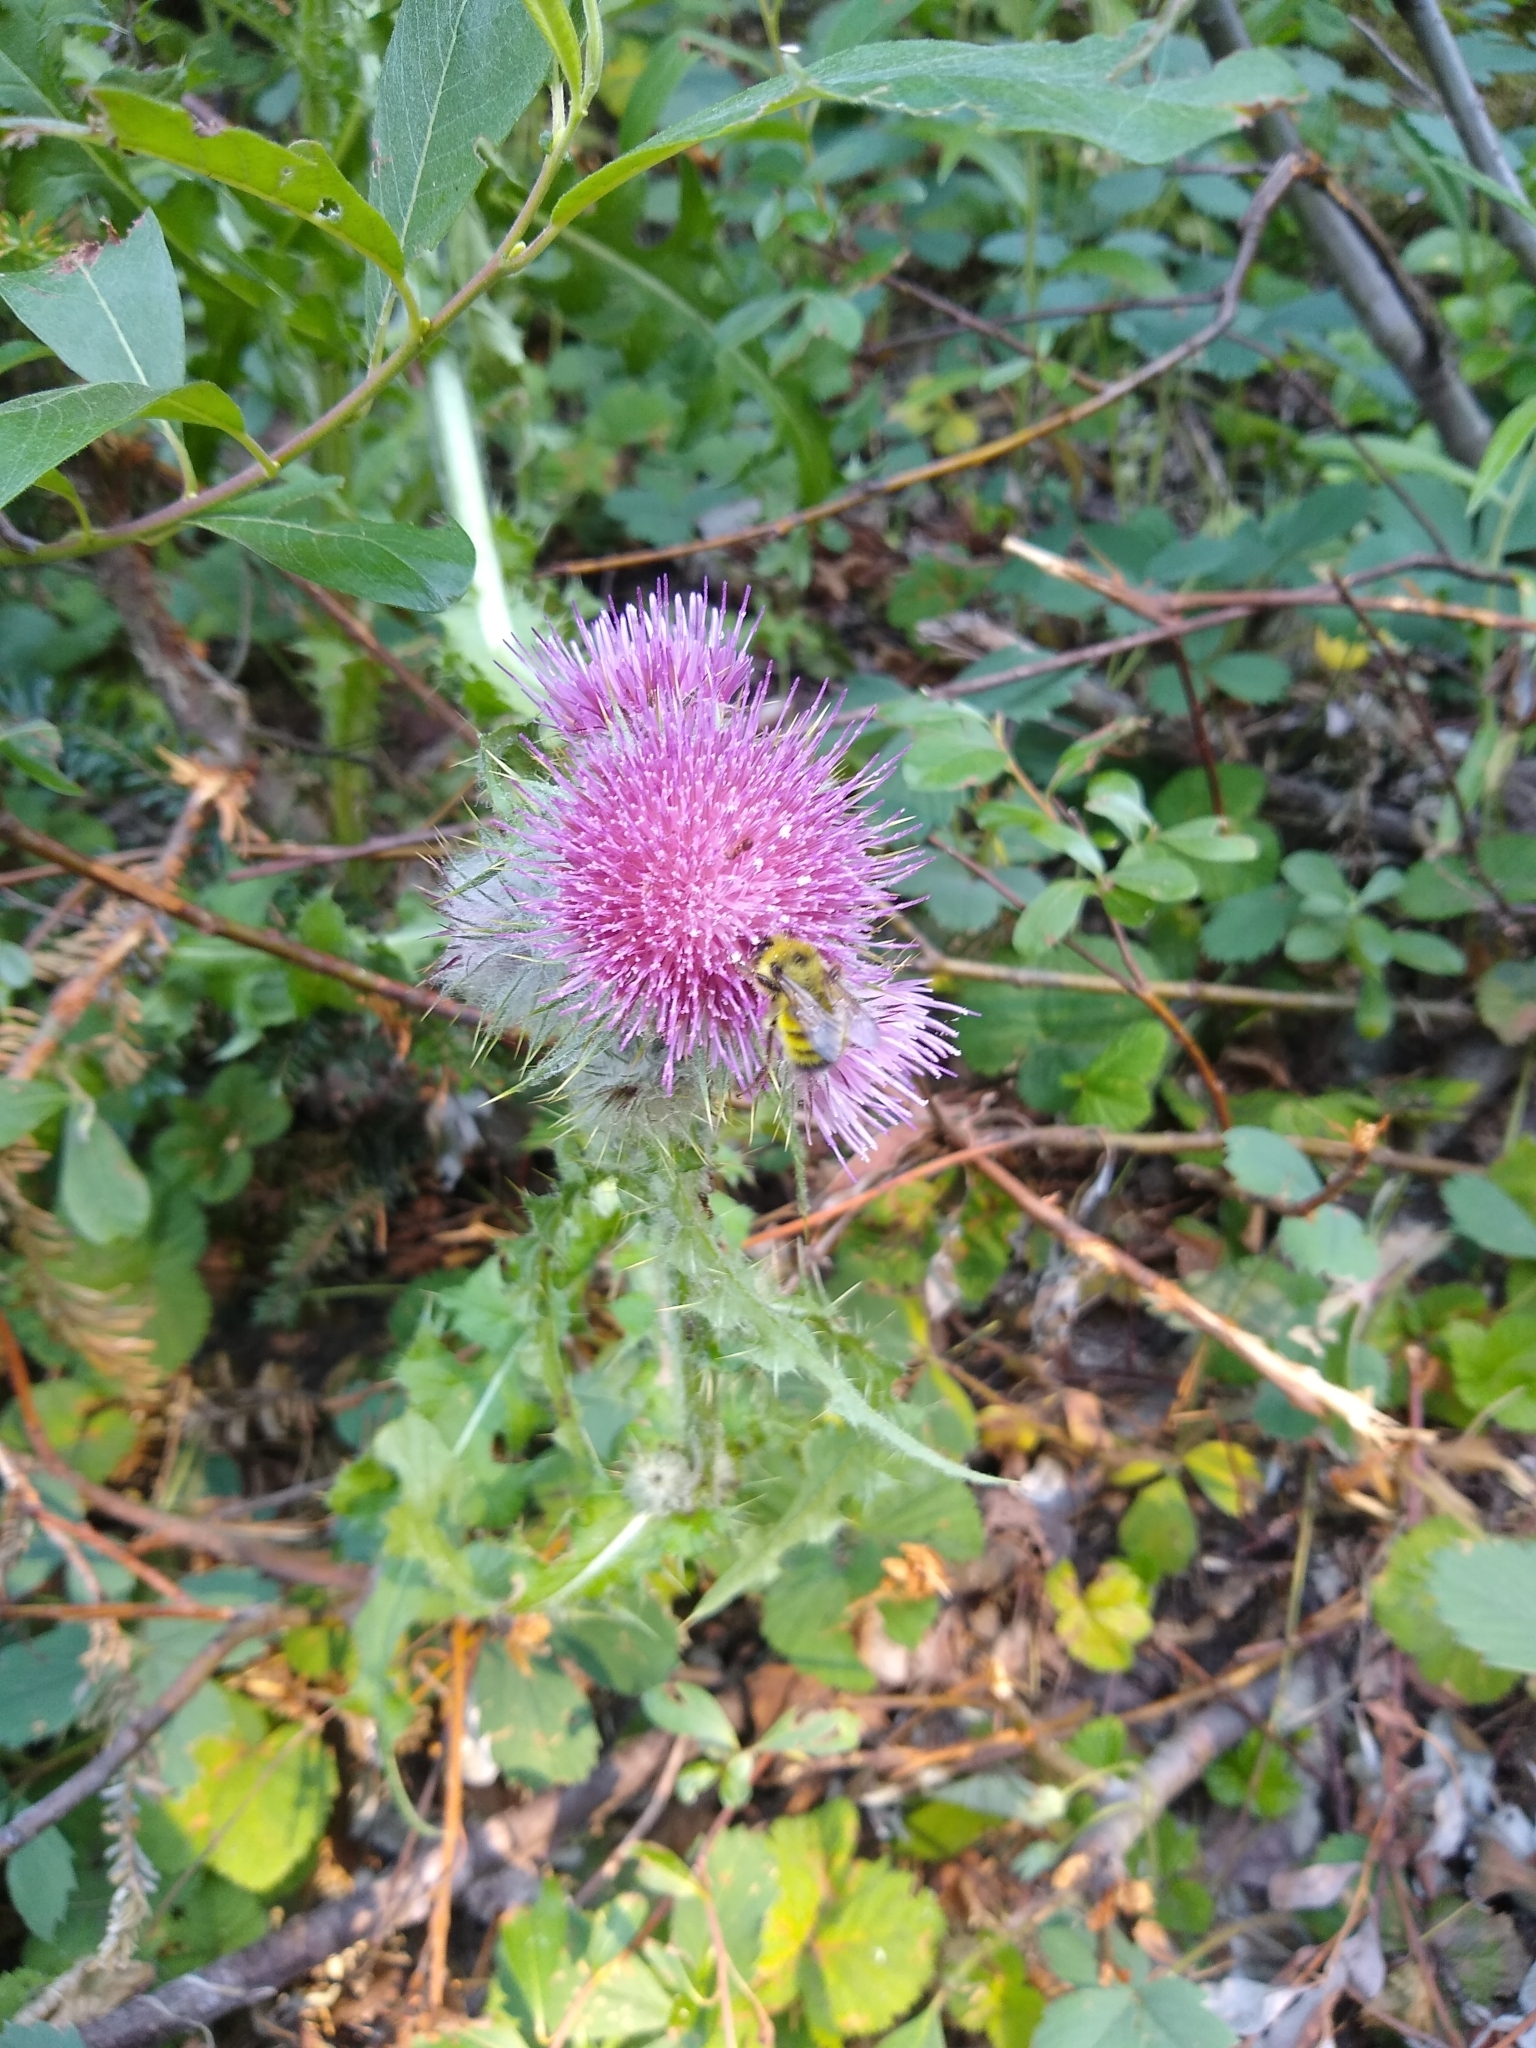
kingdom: Plantae
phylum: Tracheophyta
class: Magnoliopsida
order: Asterales
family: Asteraceae
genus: Cirsium
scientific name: Cirsium edule
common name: Indian thistle
